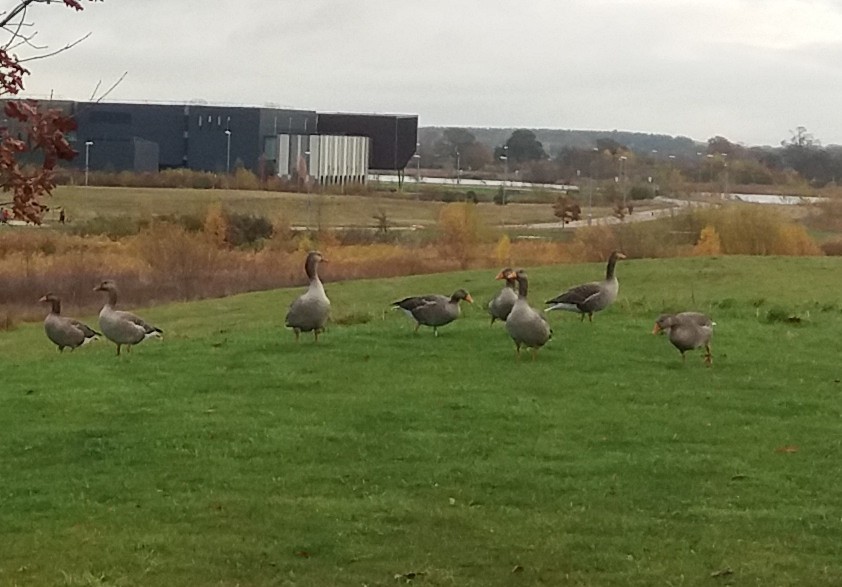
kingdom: Animalia
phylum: Chordata
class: Aves
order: Anseriformes
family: Anatidae
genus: Anser
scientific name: Anser anser
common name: Greylag goose
